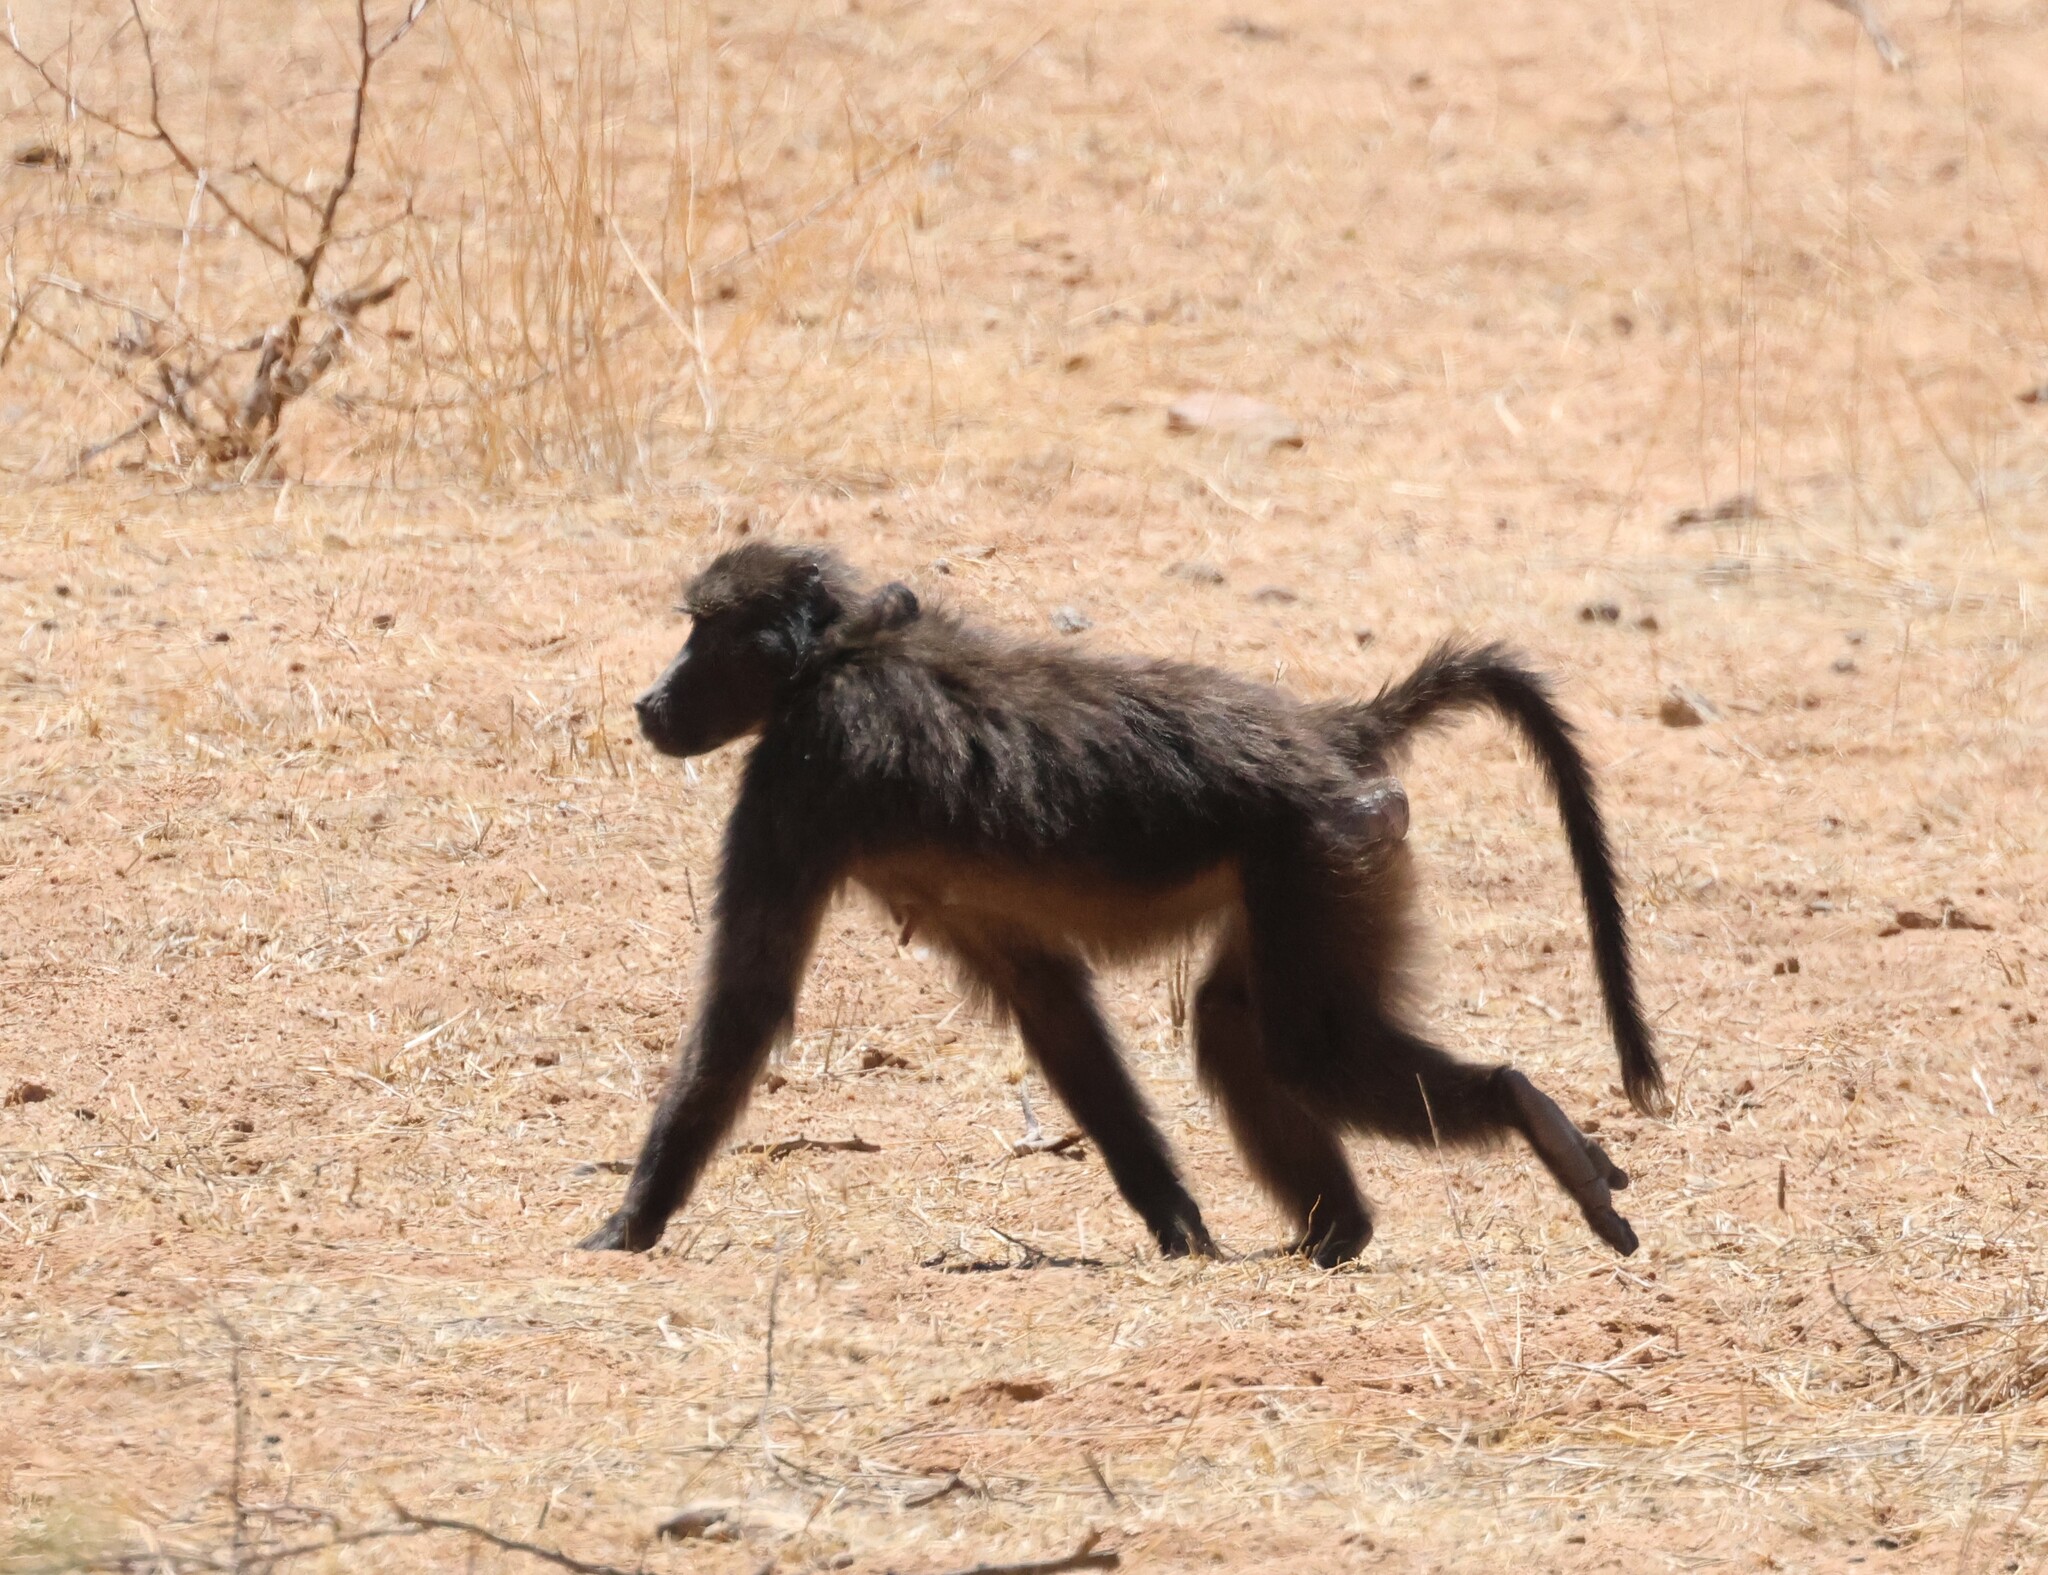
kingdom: Animalia
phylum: Chordata
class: Mammalia
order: Primates
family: Cercopithecidae
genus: Papio
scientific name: Papio ursinus
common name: Chacma baboon
